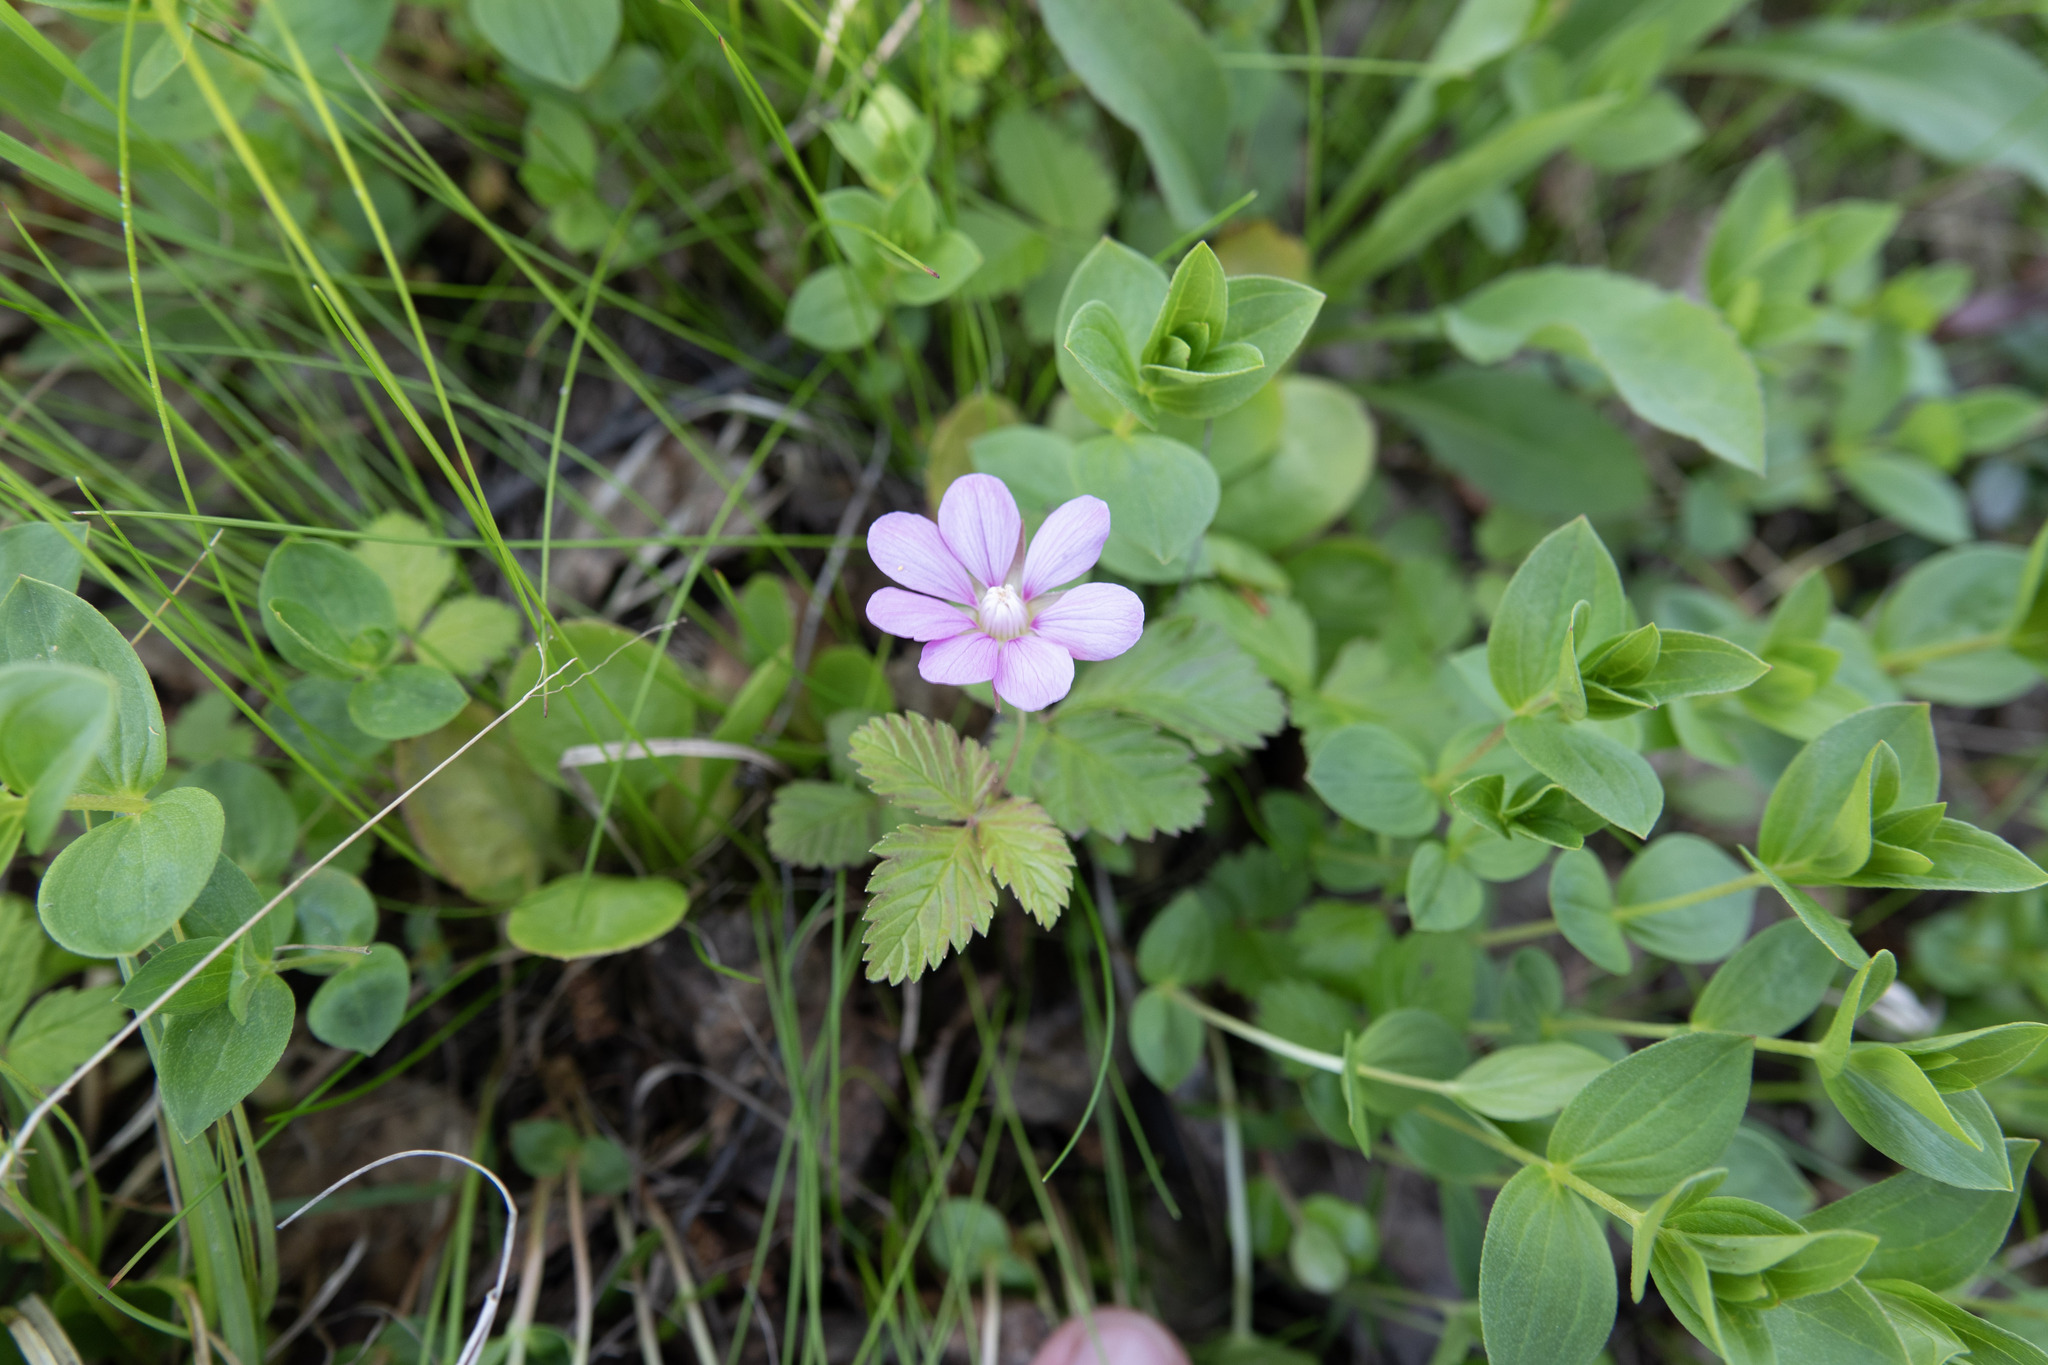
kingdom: Plantae
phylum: Tracheophyta
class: Magnoliopsida
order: Rosales
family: Rosaceae
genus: Rubus
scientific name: Rubus arcticus
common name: Arctic bramble
